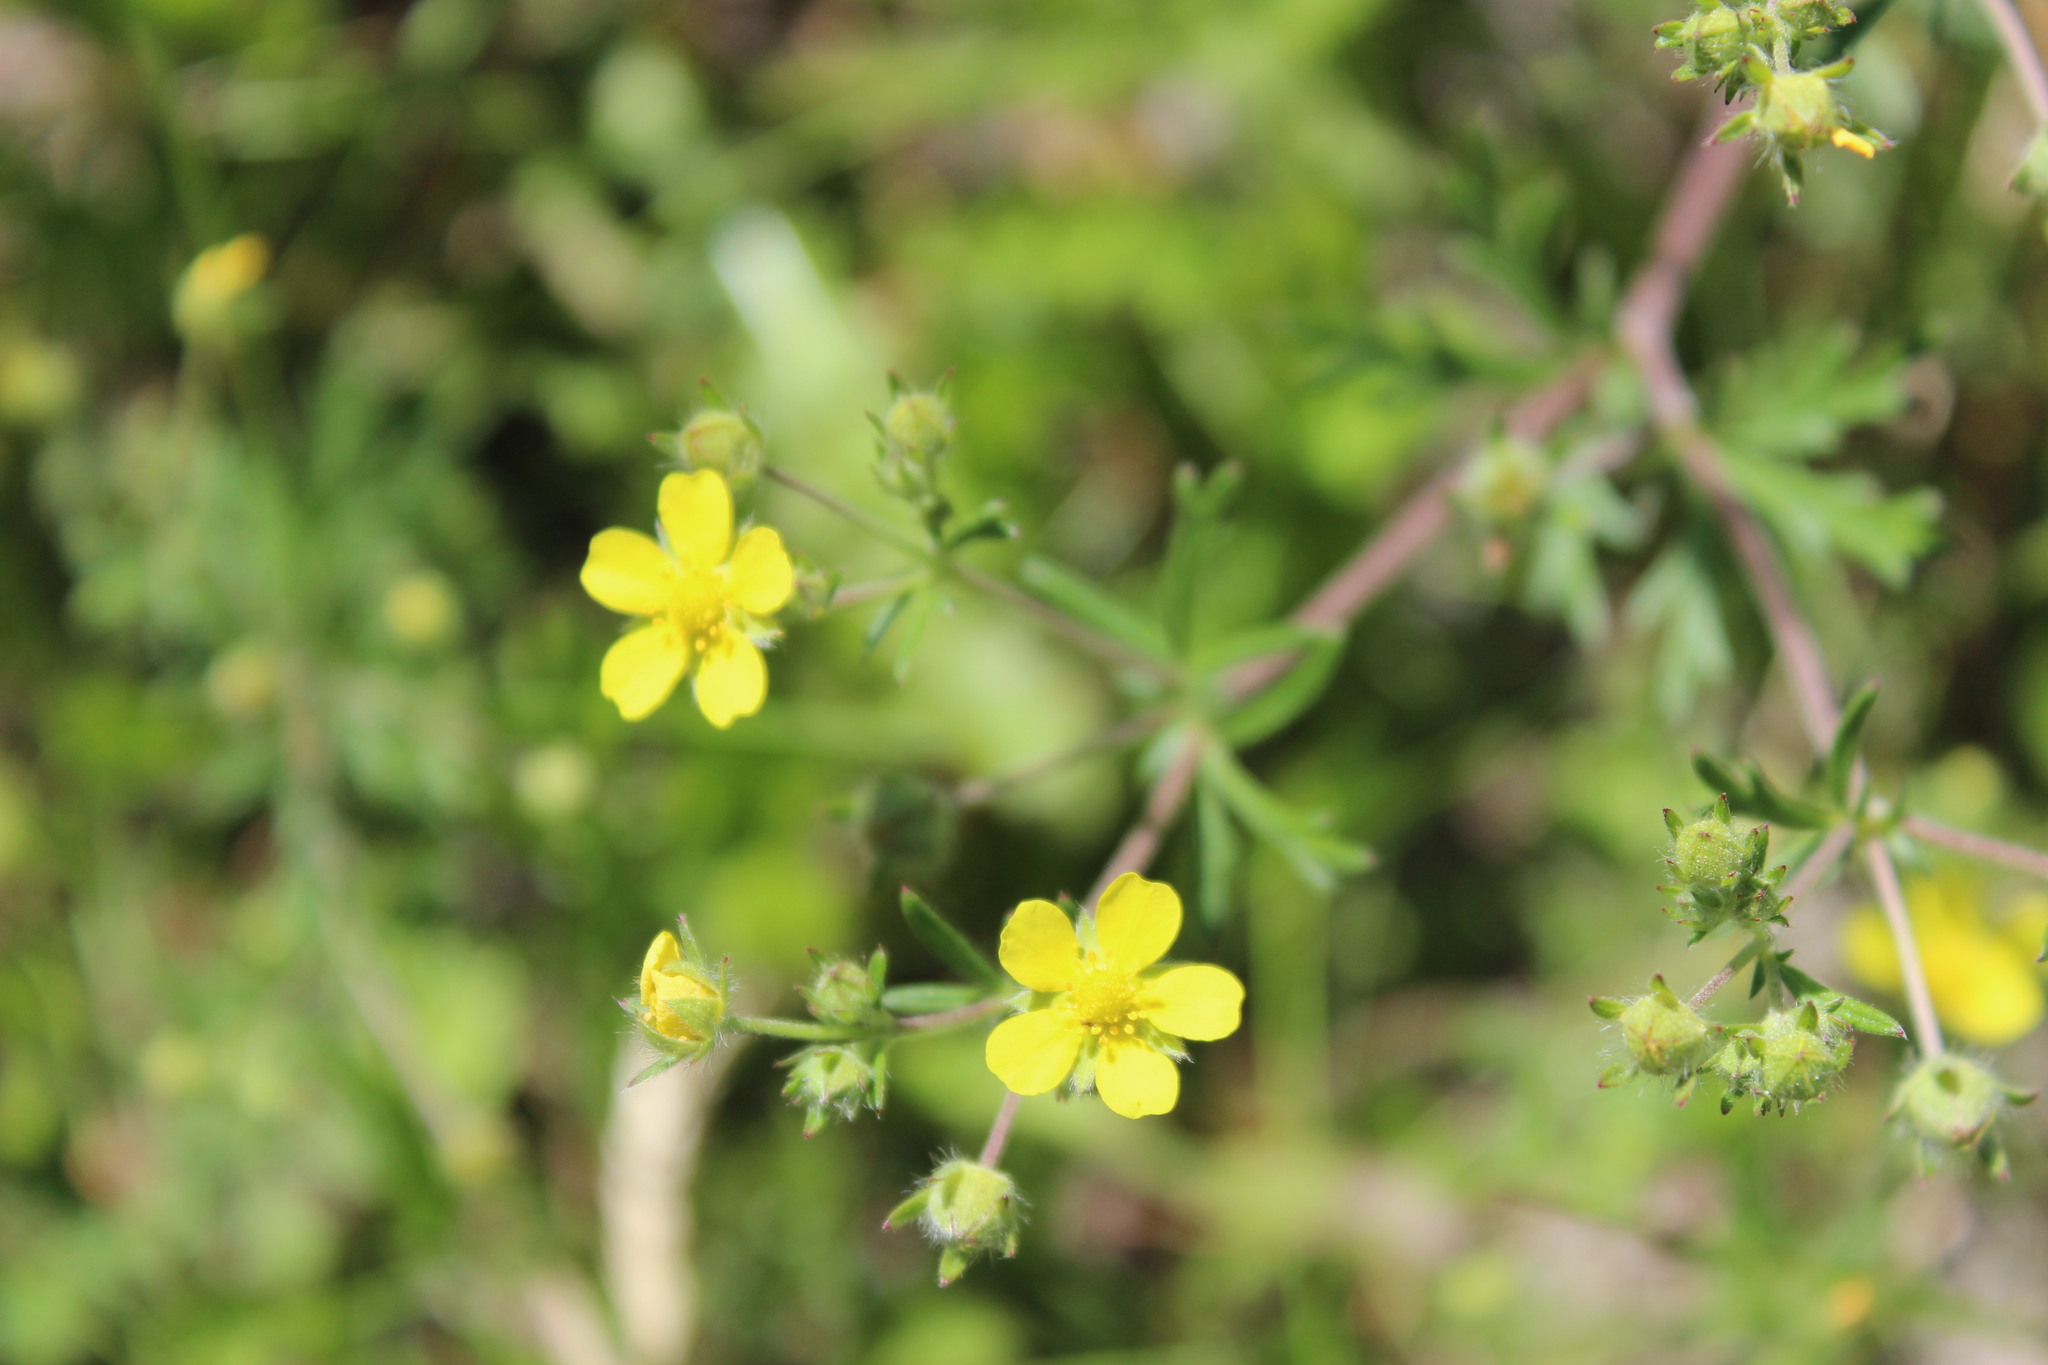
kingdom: Plantae
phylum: Tracheophyta
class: Magnoliopsida
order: Rosales
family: Rosaceae
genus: Potentilla
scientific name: Potentilla argentea
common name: Hoary cinquefoil
